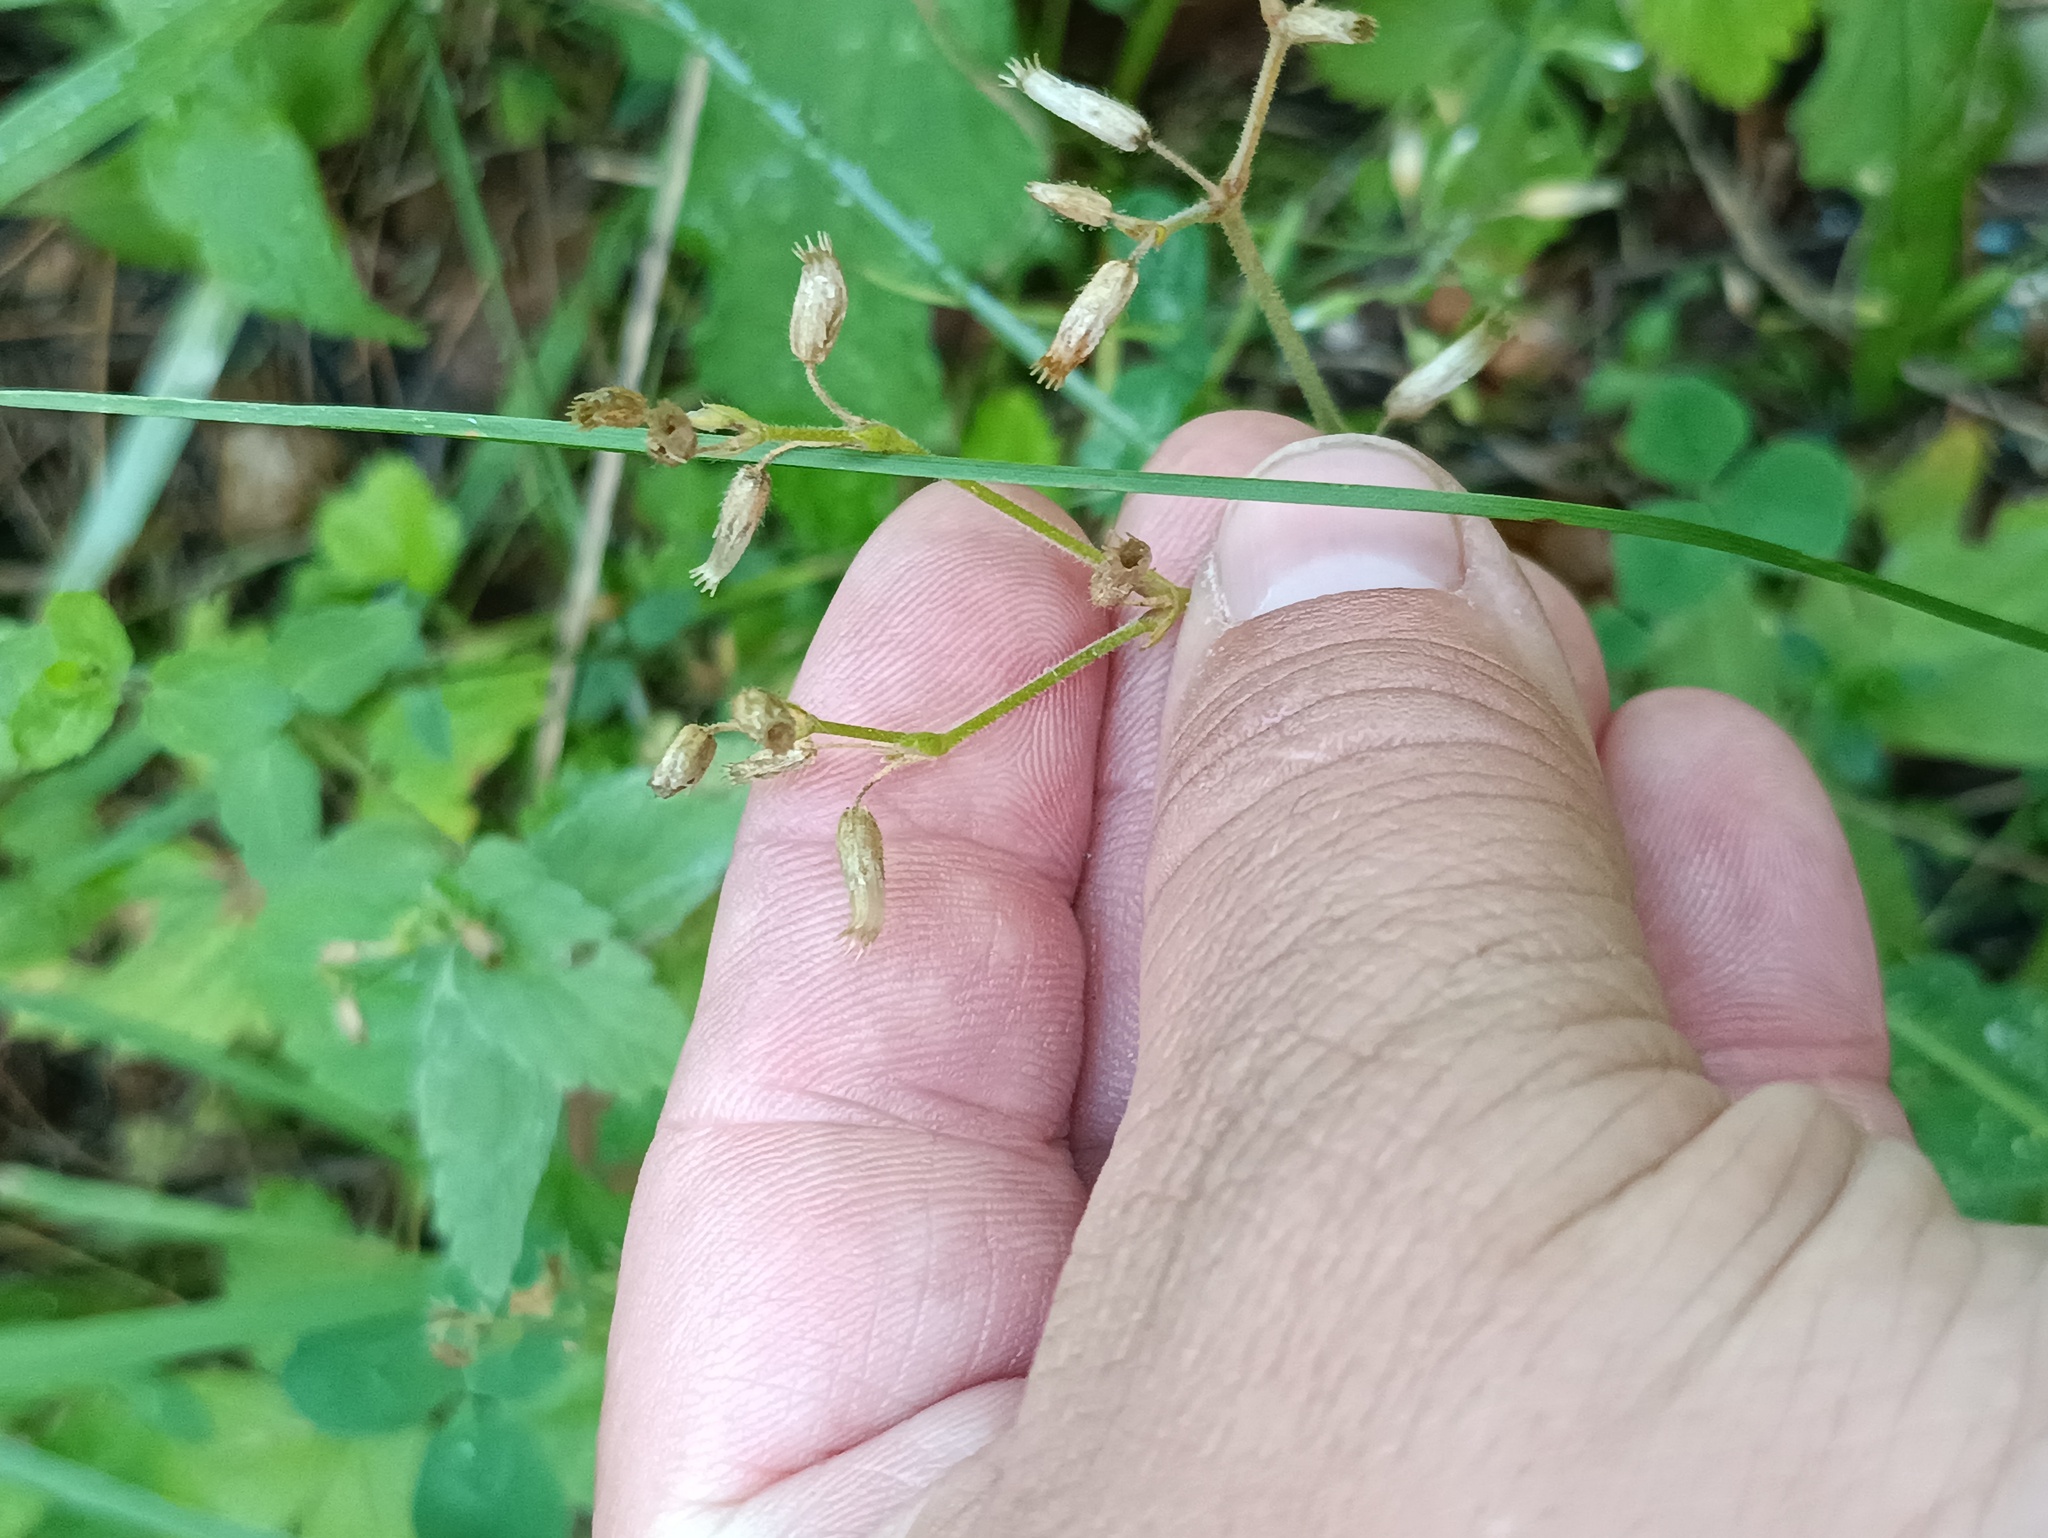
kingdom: Plantae
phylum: Tracheophyta
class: Magnoliopsida
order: Caryophyllales
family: Caryophyllaceae
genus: Cerastium
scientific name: Cerastium holosteoides
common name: Big chickweed
